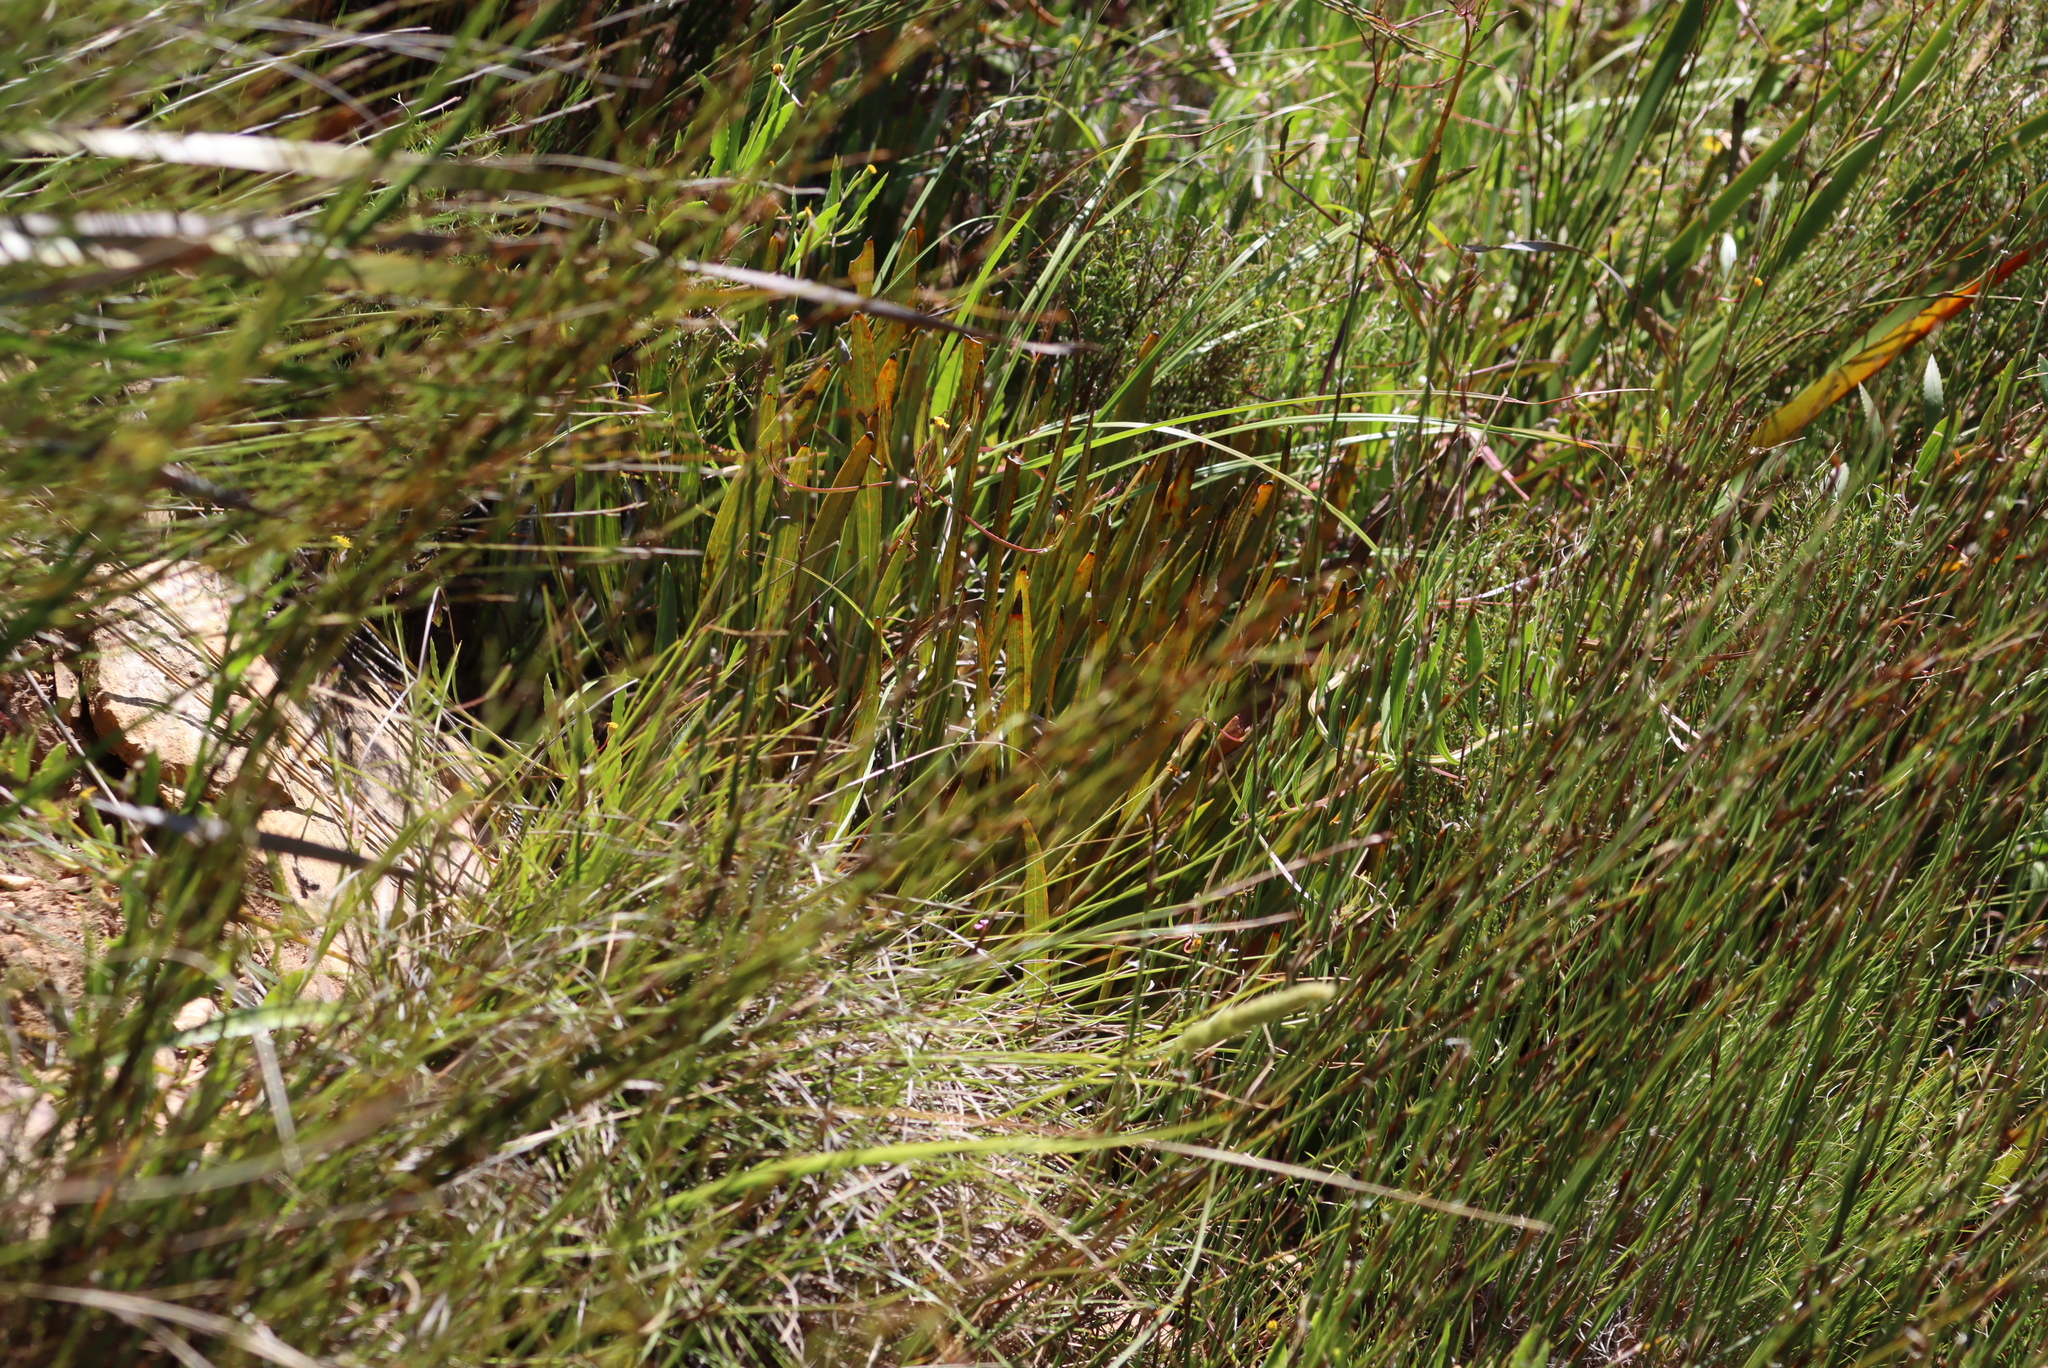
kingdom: Plantae
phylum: Tracheophyta
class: Magnoliopsida
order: Proteales
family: Proteaceae
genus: Protea
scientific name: Protea scabra
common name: Sandpaper-leaf sugarbush
